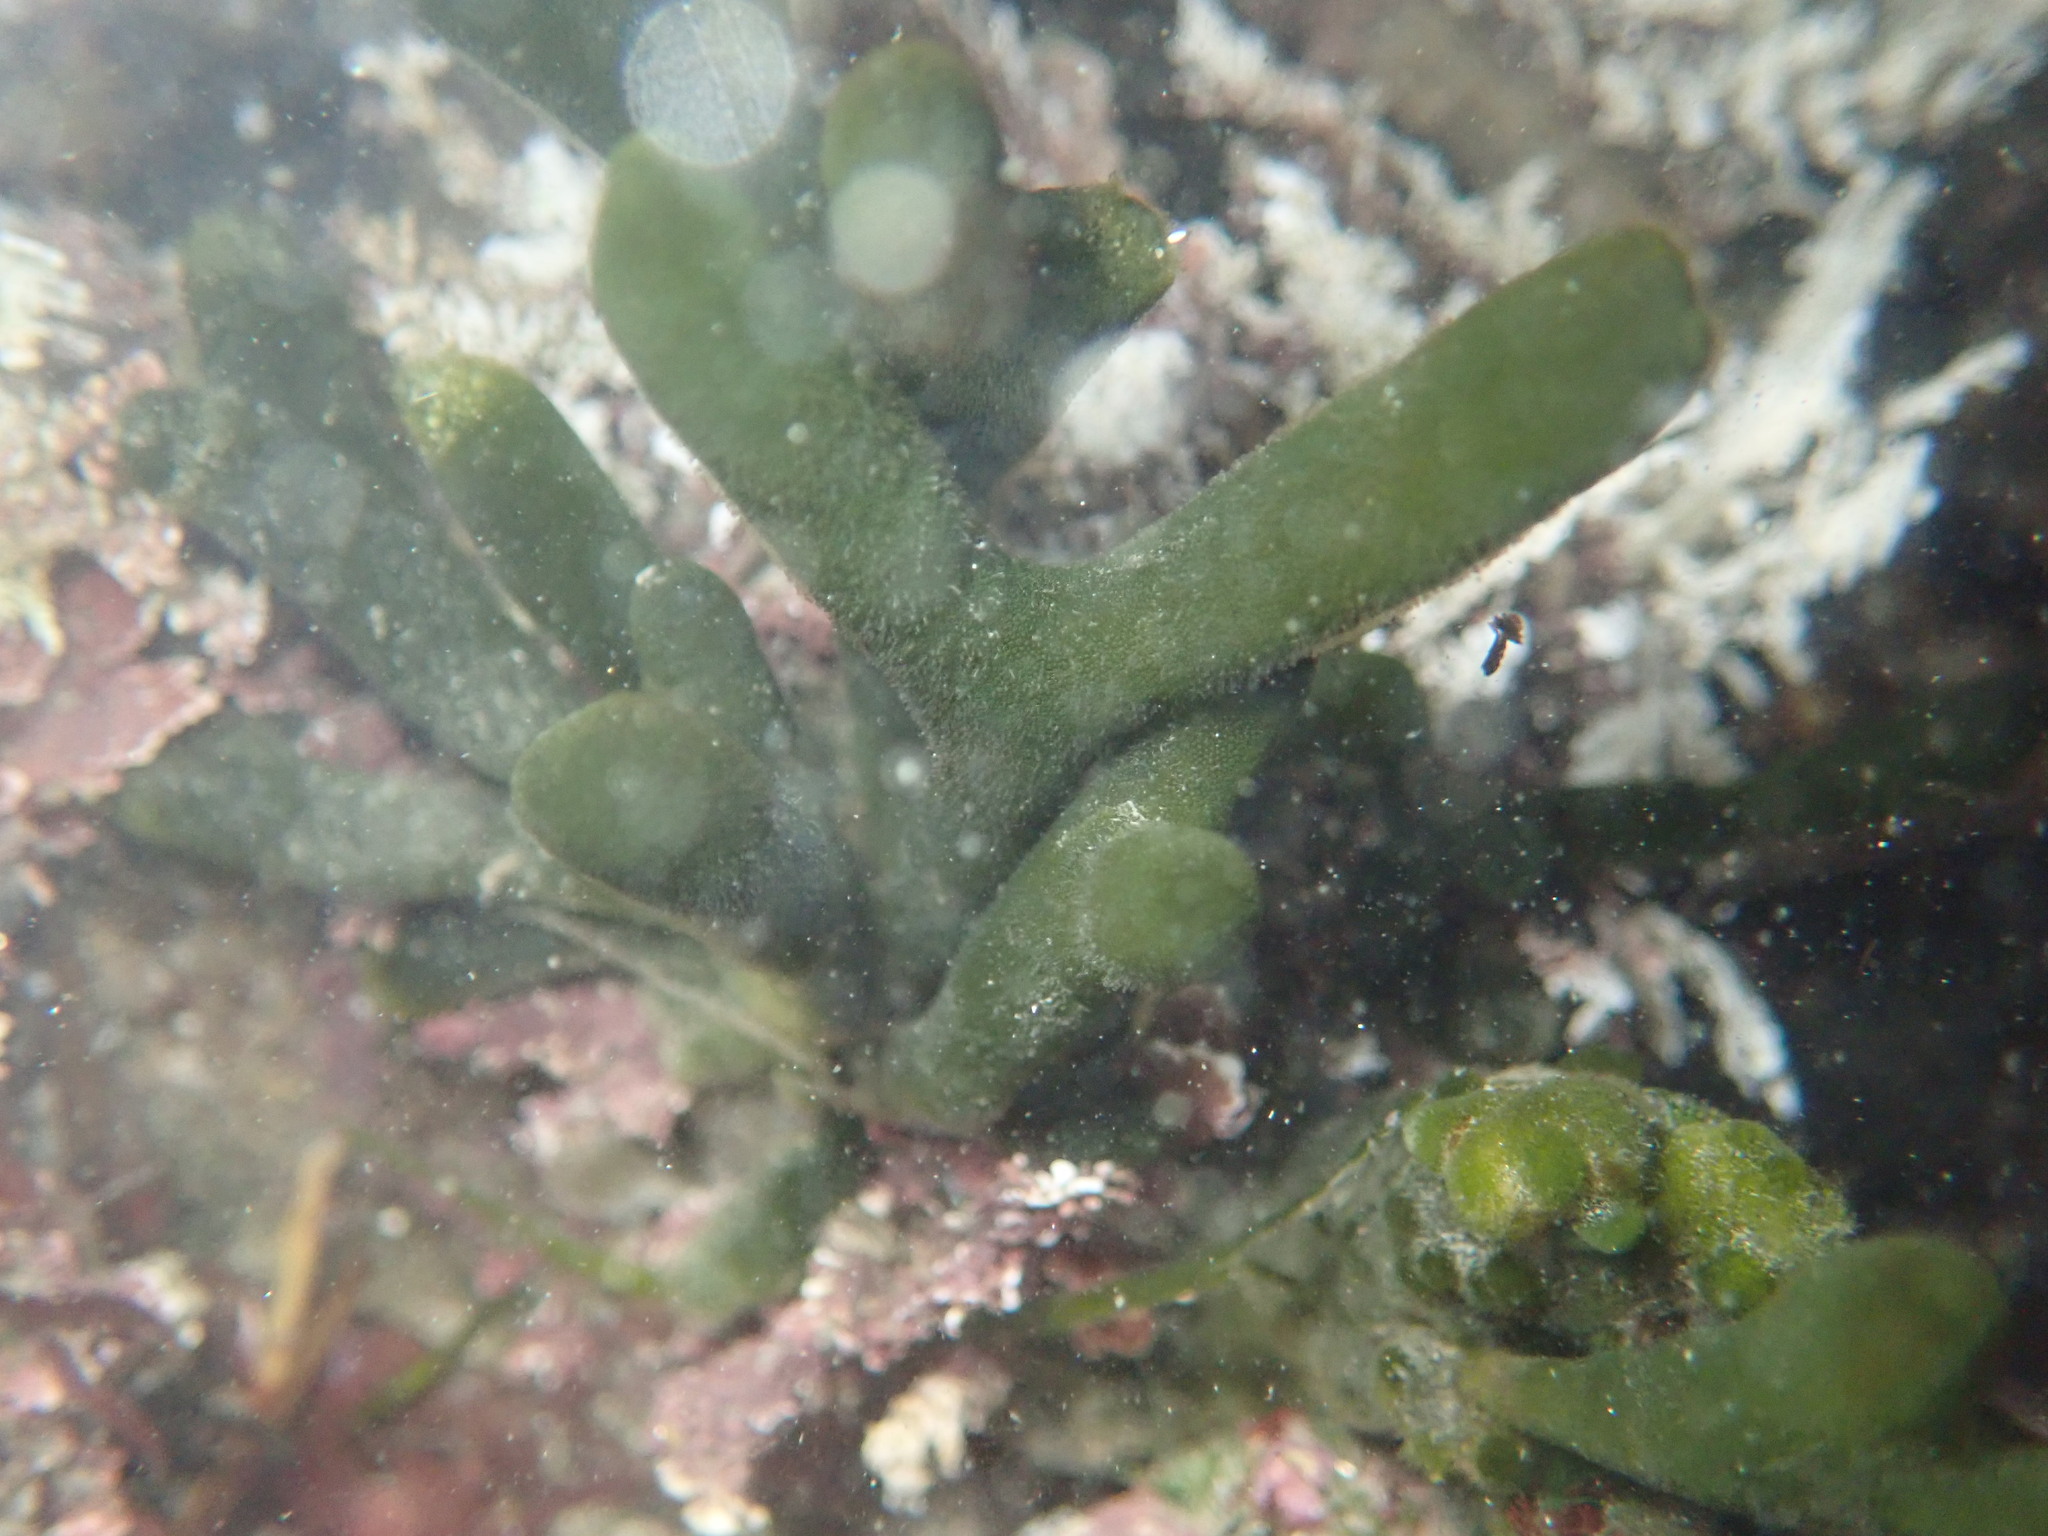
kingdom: Plantae
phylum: Chlorophyta
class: Ulvophyceae
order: Bryopsidales
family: Codiaceae
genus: Codium
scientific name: Codium fragile
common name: Dead man's fingers
